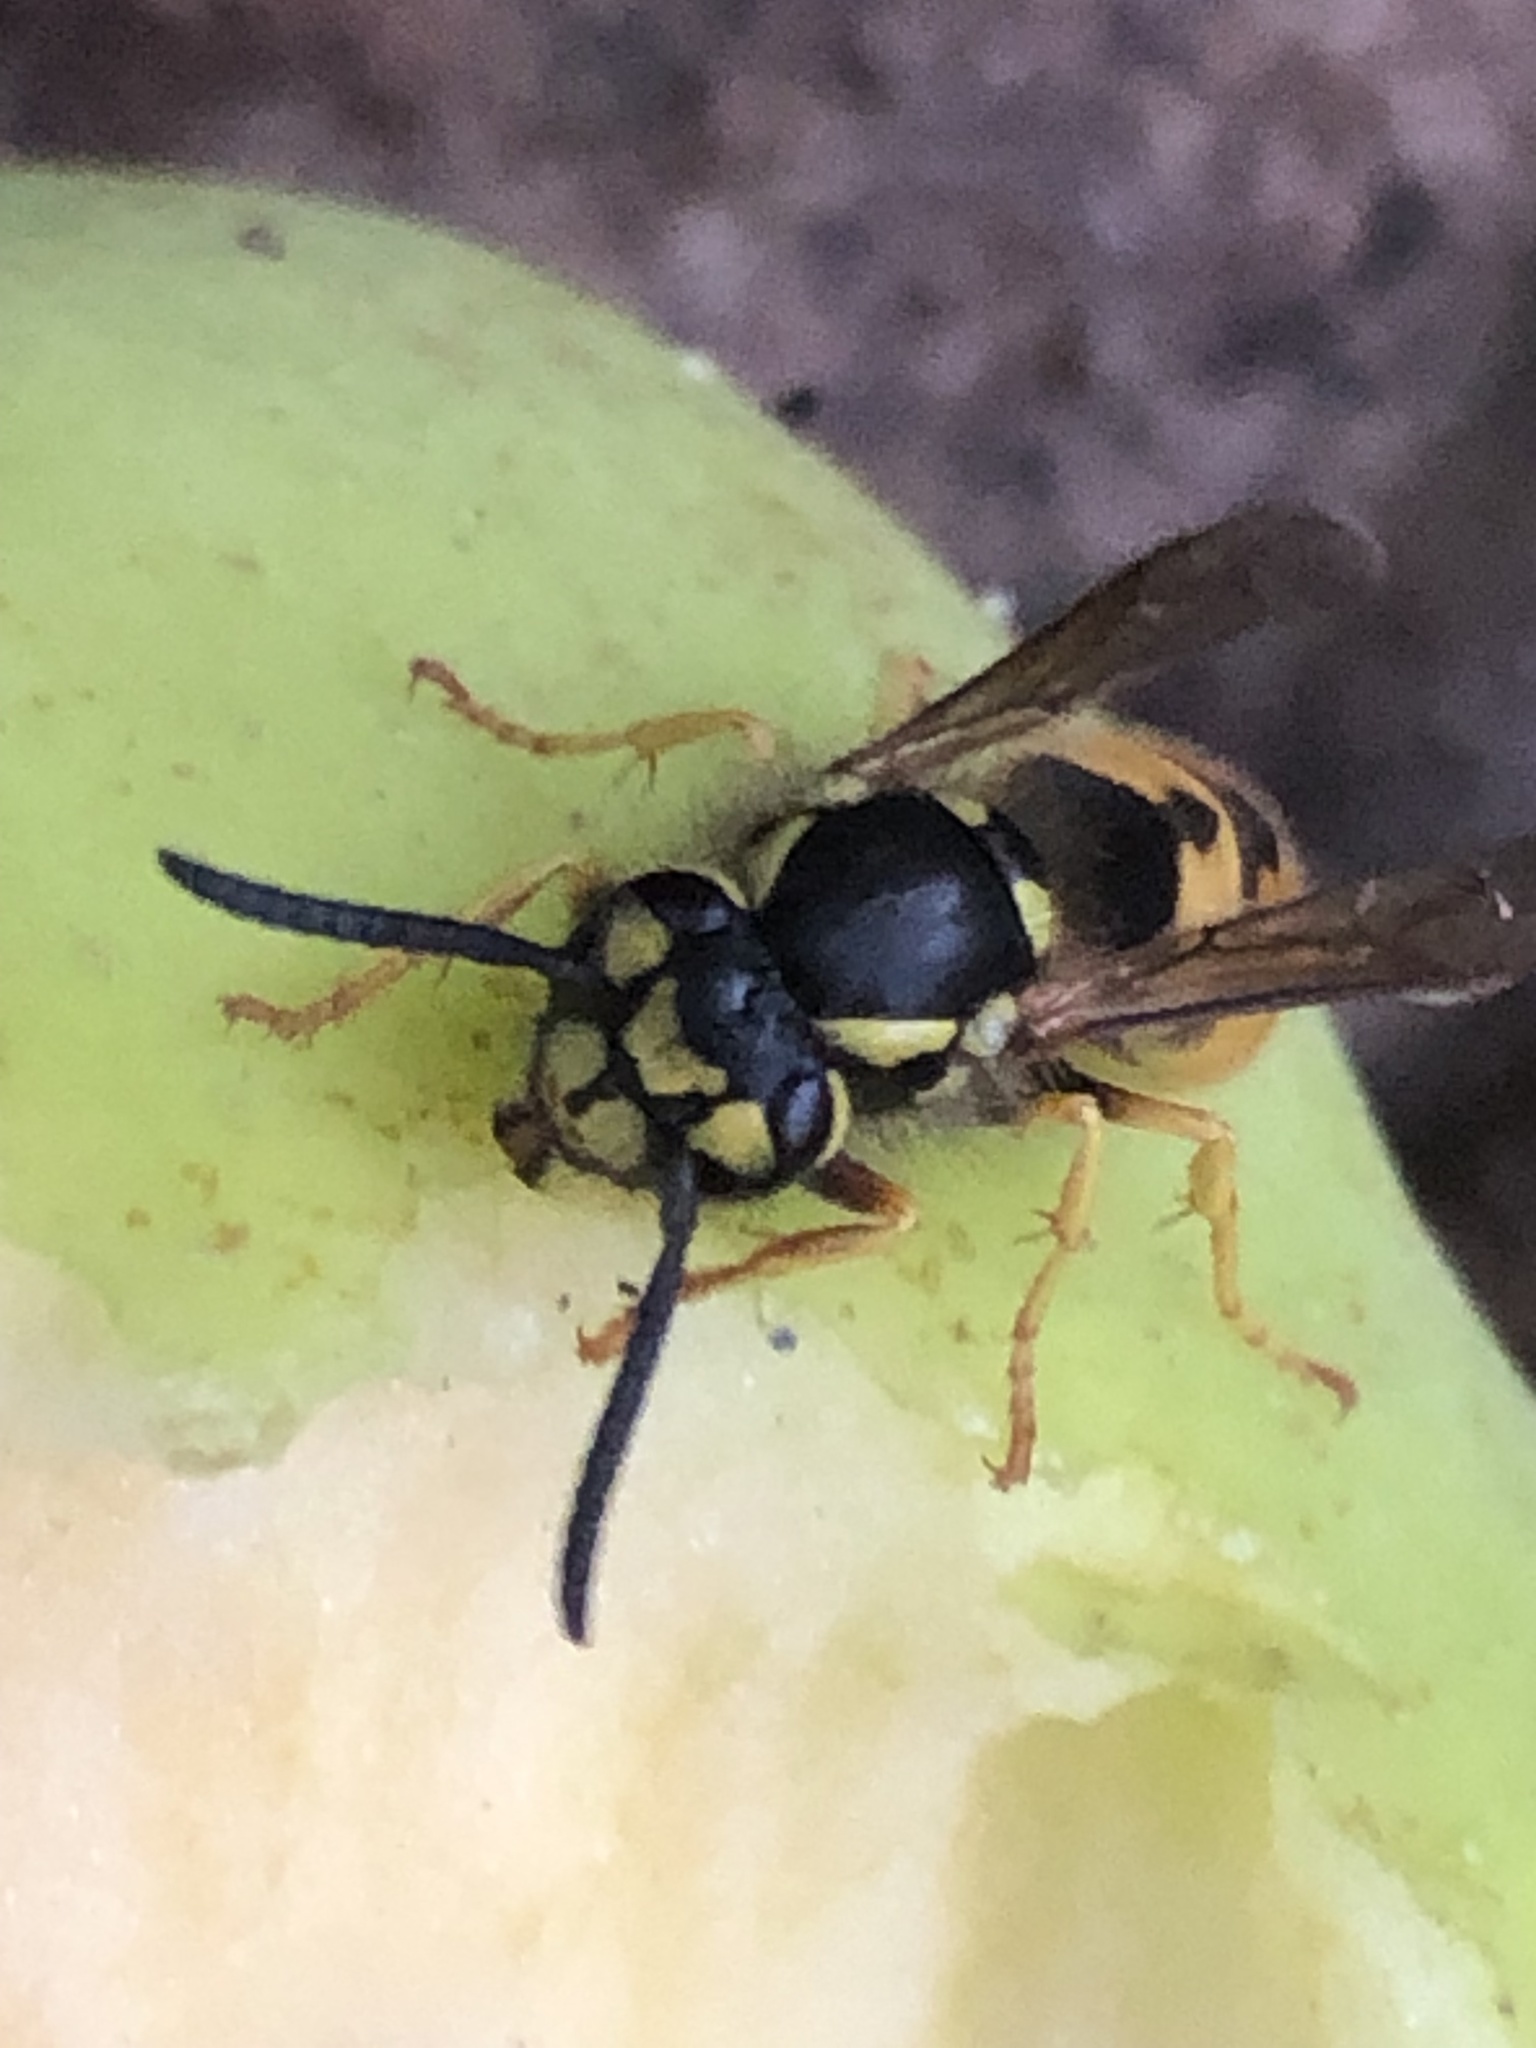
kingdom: Animalia
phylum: Arthropoda
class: Insecta
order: Hymenoptera
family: Vespidae
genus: Vespula
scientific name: Vespula germanica
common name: German wasp
